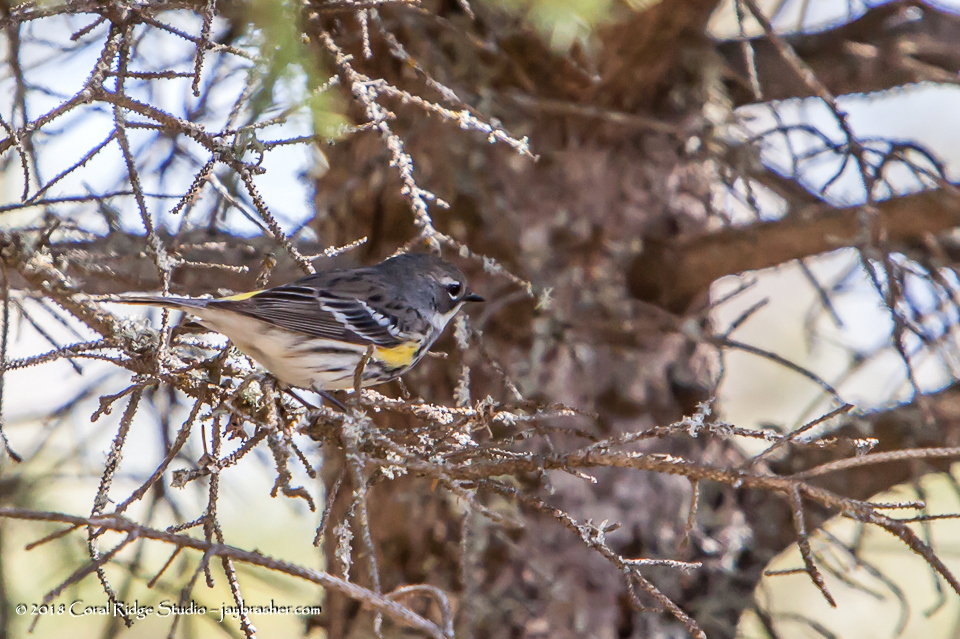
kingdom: Animalia
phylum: Chordata
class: Aves
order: Passeriformes
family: Parulidae
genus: Setophaga
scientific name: Setophaga coronata
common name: Myrtle warbler
